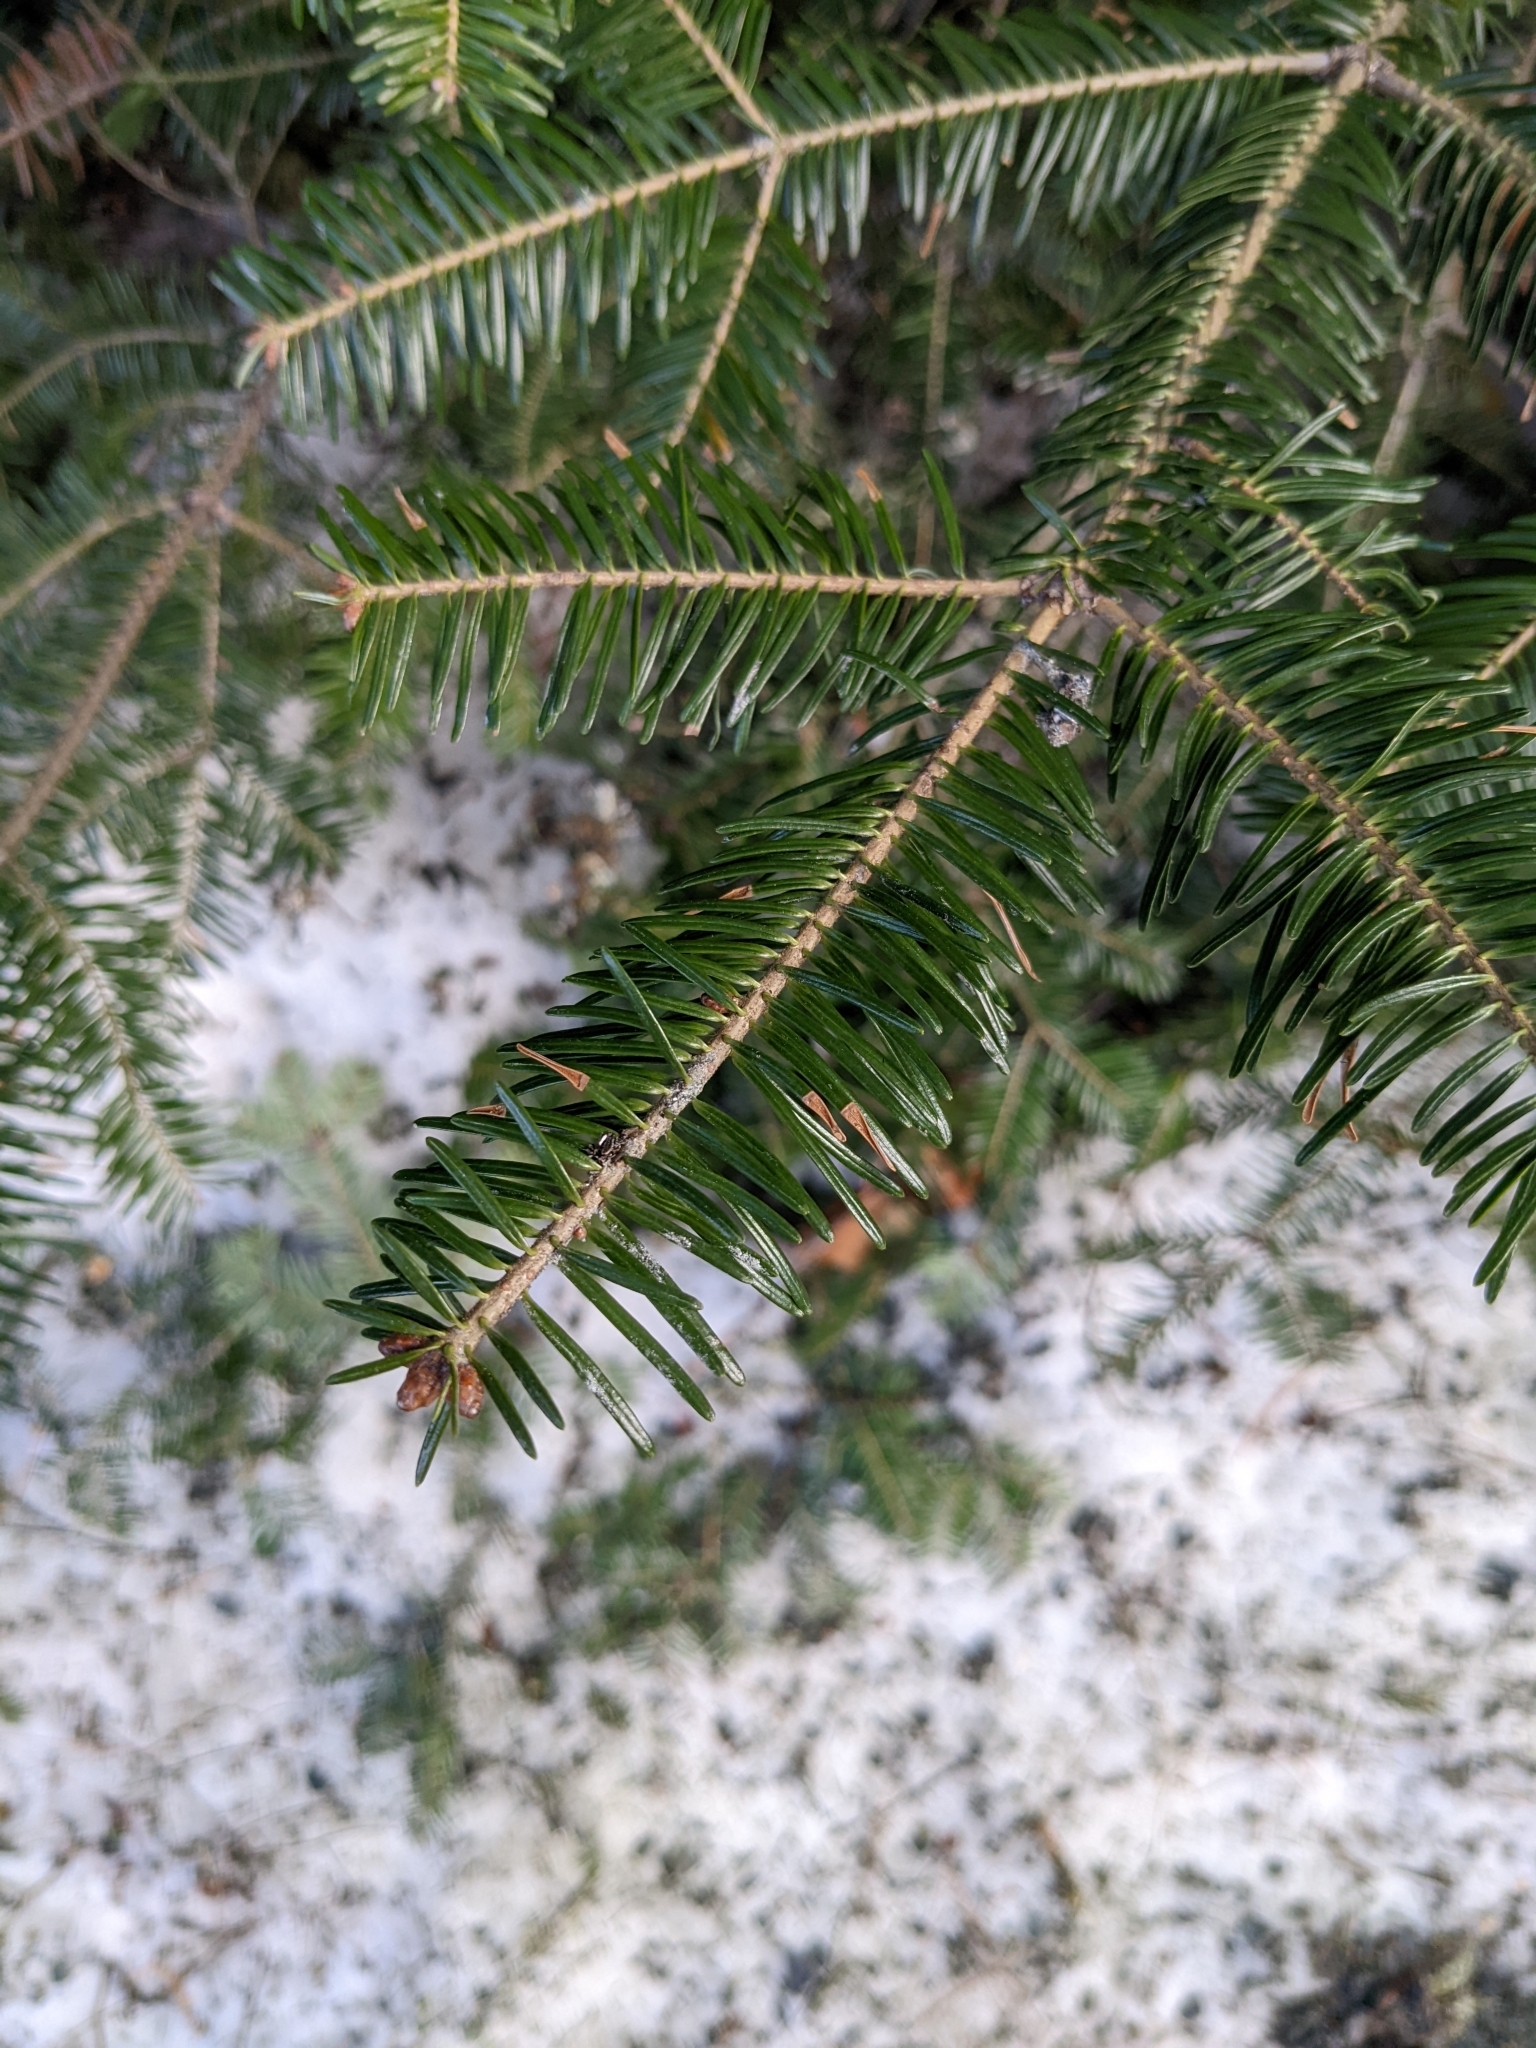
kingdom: Plantae
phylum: Tracheophyta
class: Pinopsida
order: Pinales
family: Pinaceae
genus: Abies
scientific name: Abies balsamea
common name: Balsam fir
